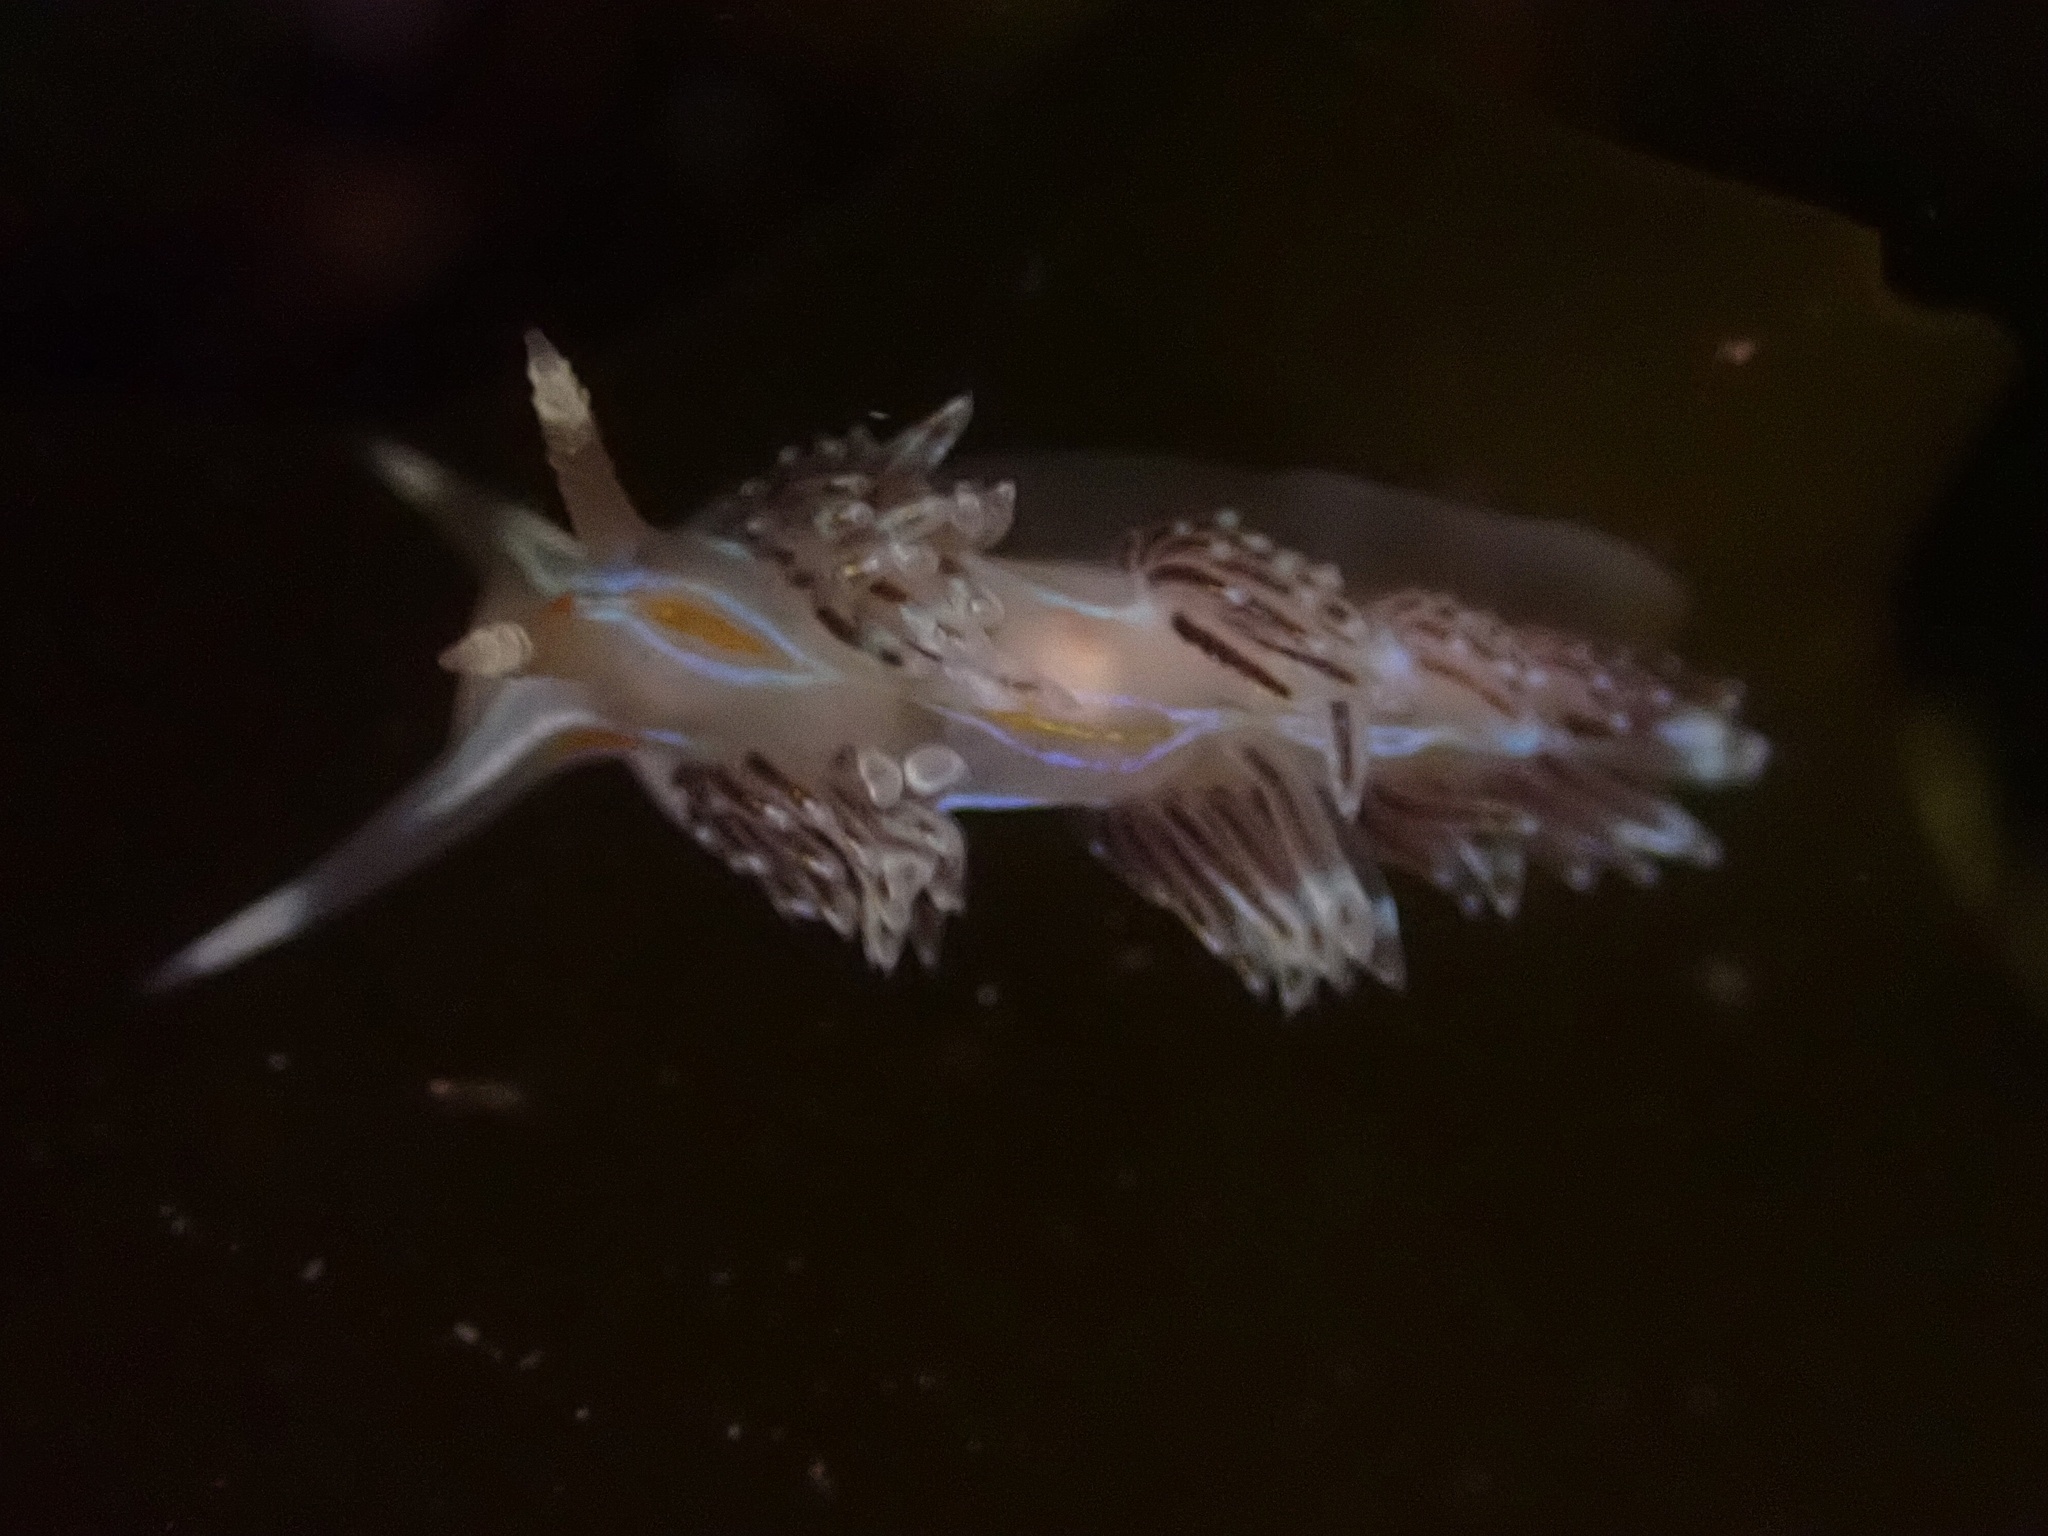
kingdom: Animalia
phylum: Mollusca
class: Gastropoda
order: Nudibranchia
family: Myrrhinidae
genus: Hermissenda
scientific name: Hermissenda opalescens
